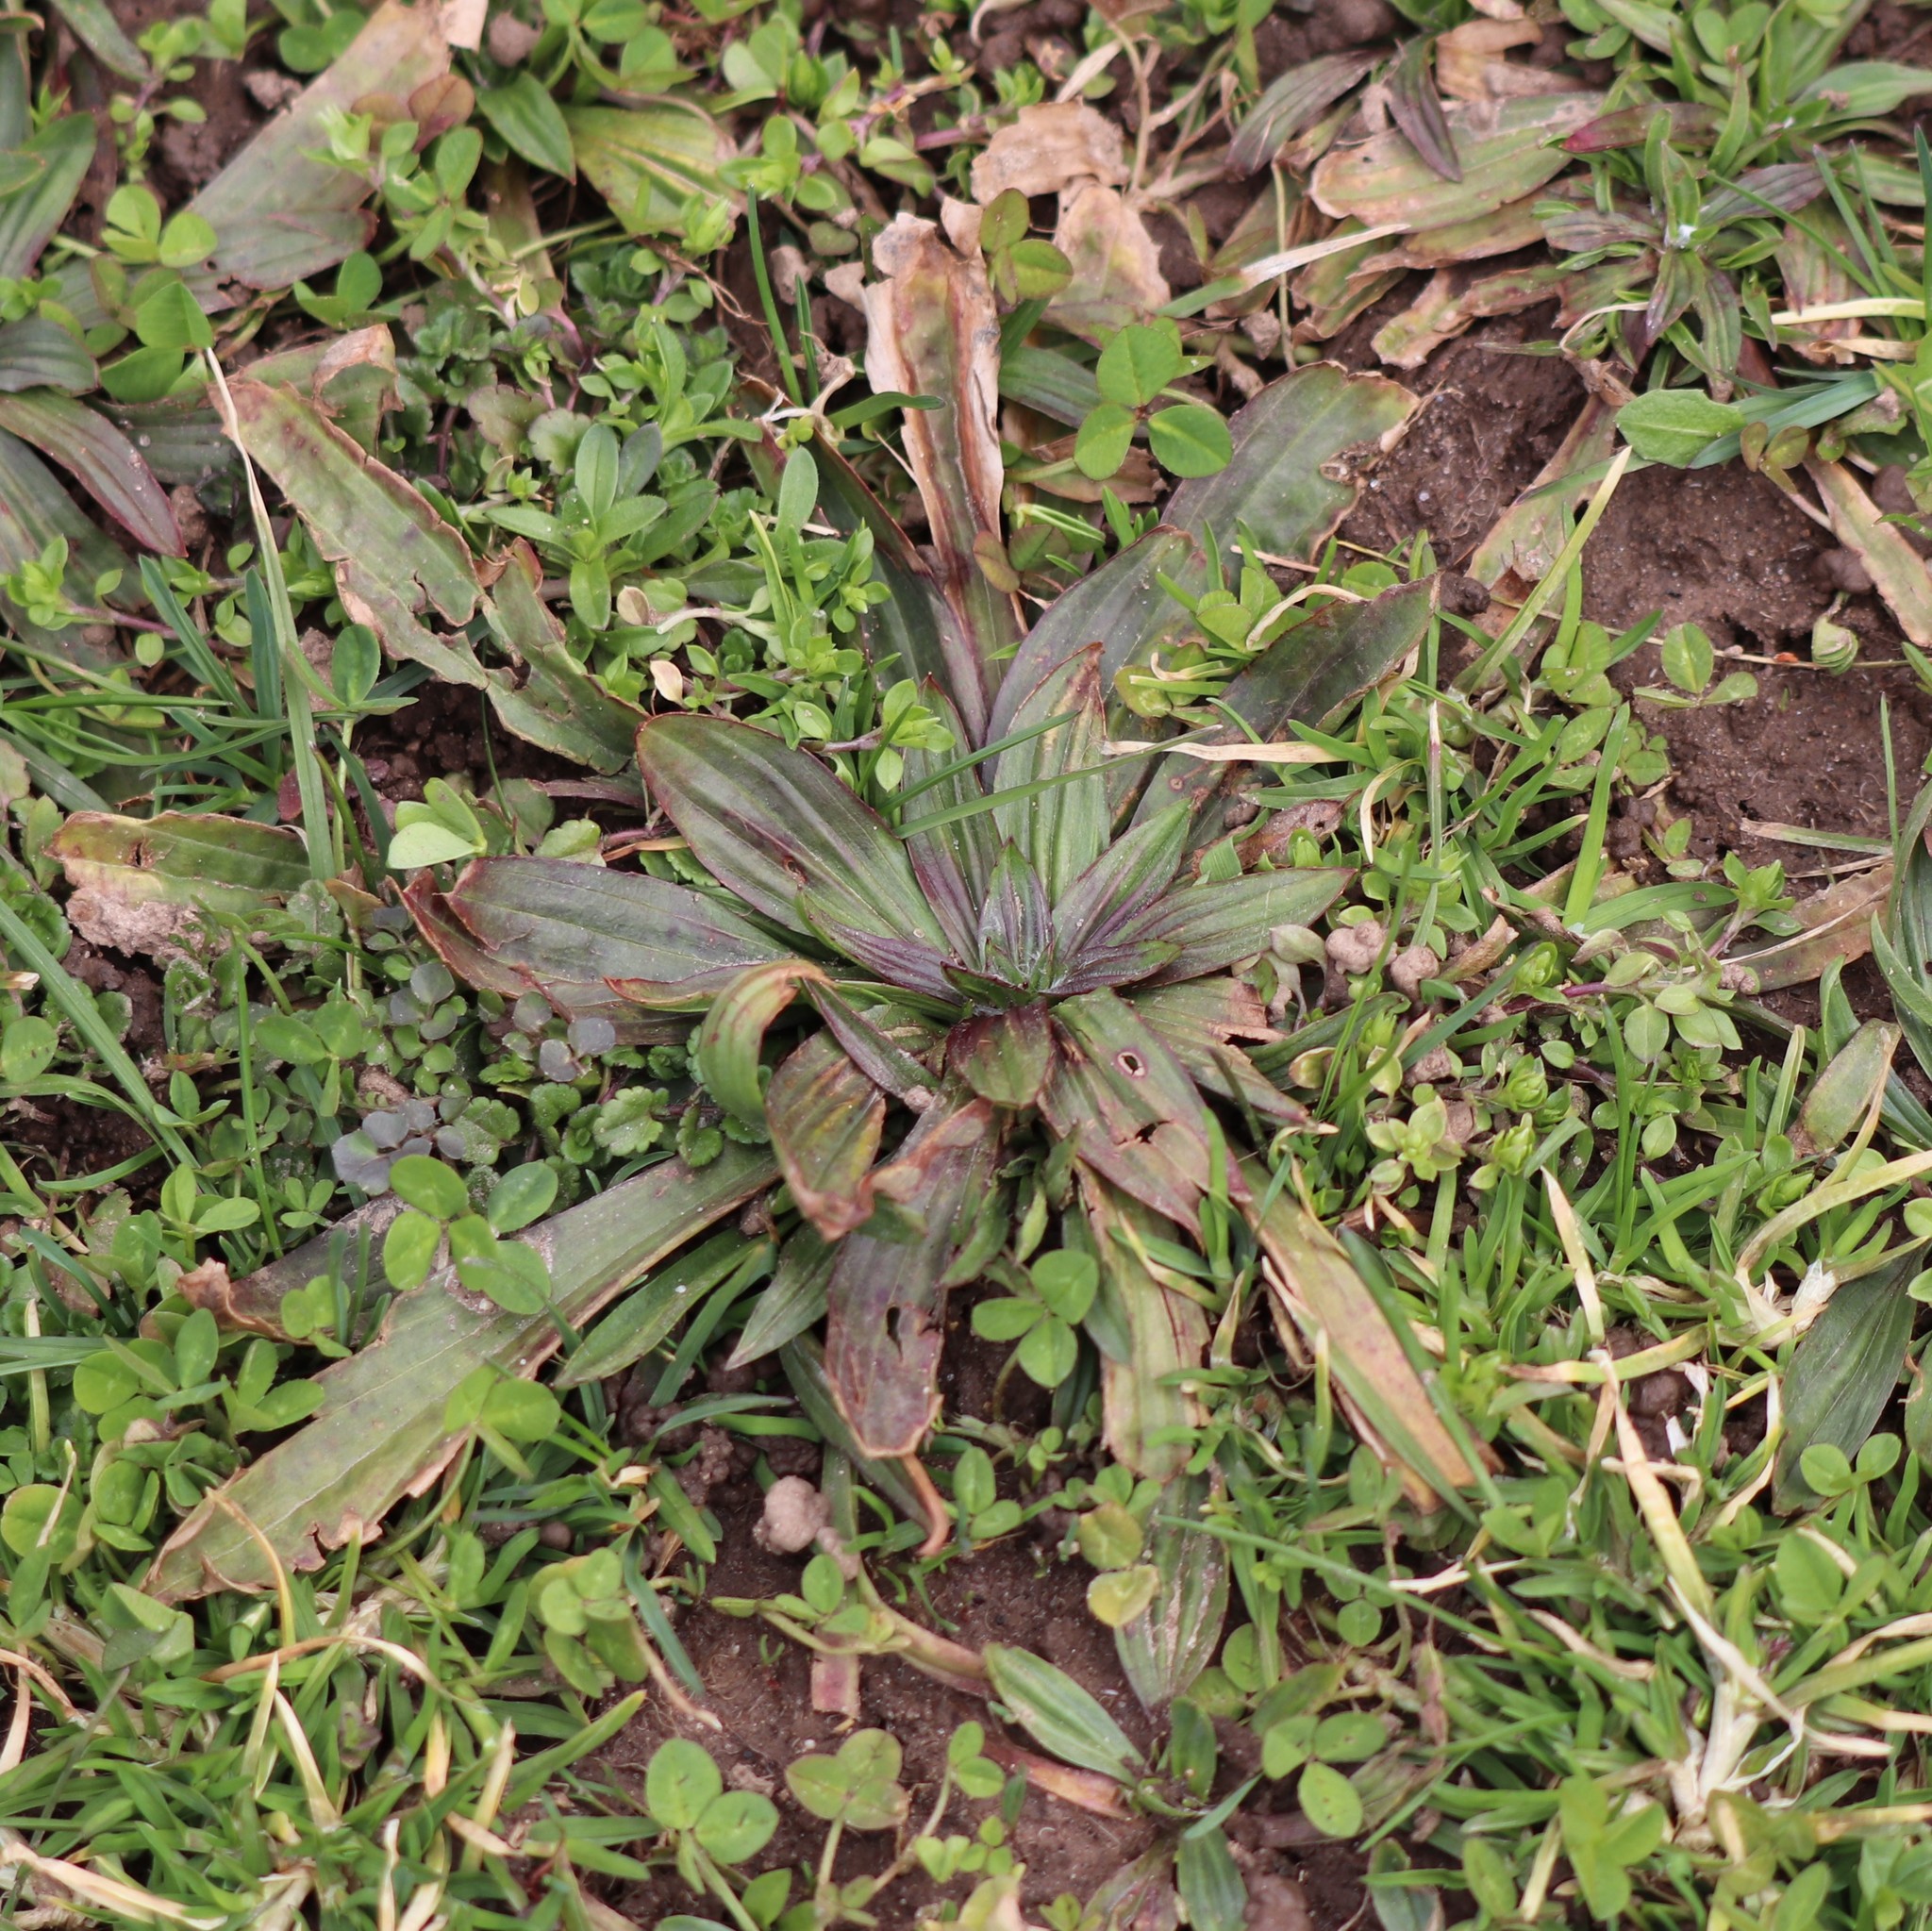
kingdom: Plantae
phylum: Tracheophyta
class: Magnoliopsida
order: Lamiales
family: Plantaginaceae
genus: Plantago
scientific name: Plantago lanceolata
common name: Ribwort plantain
